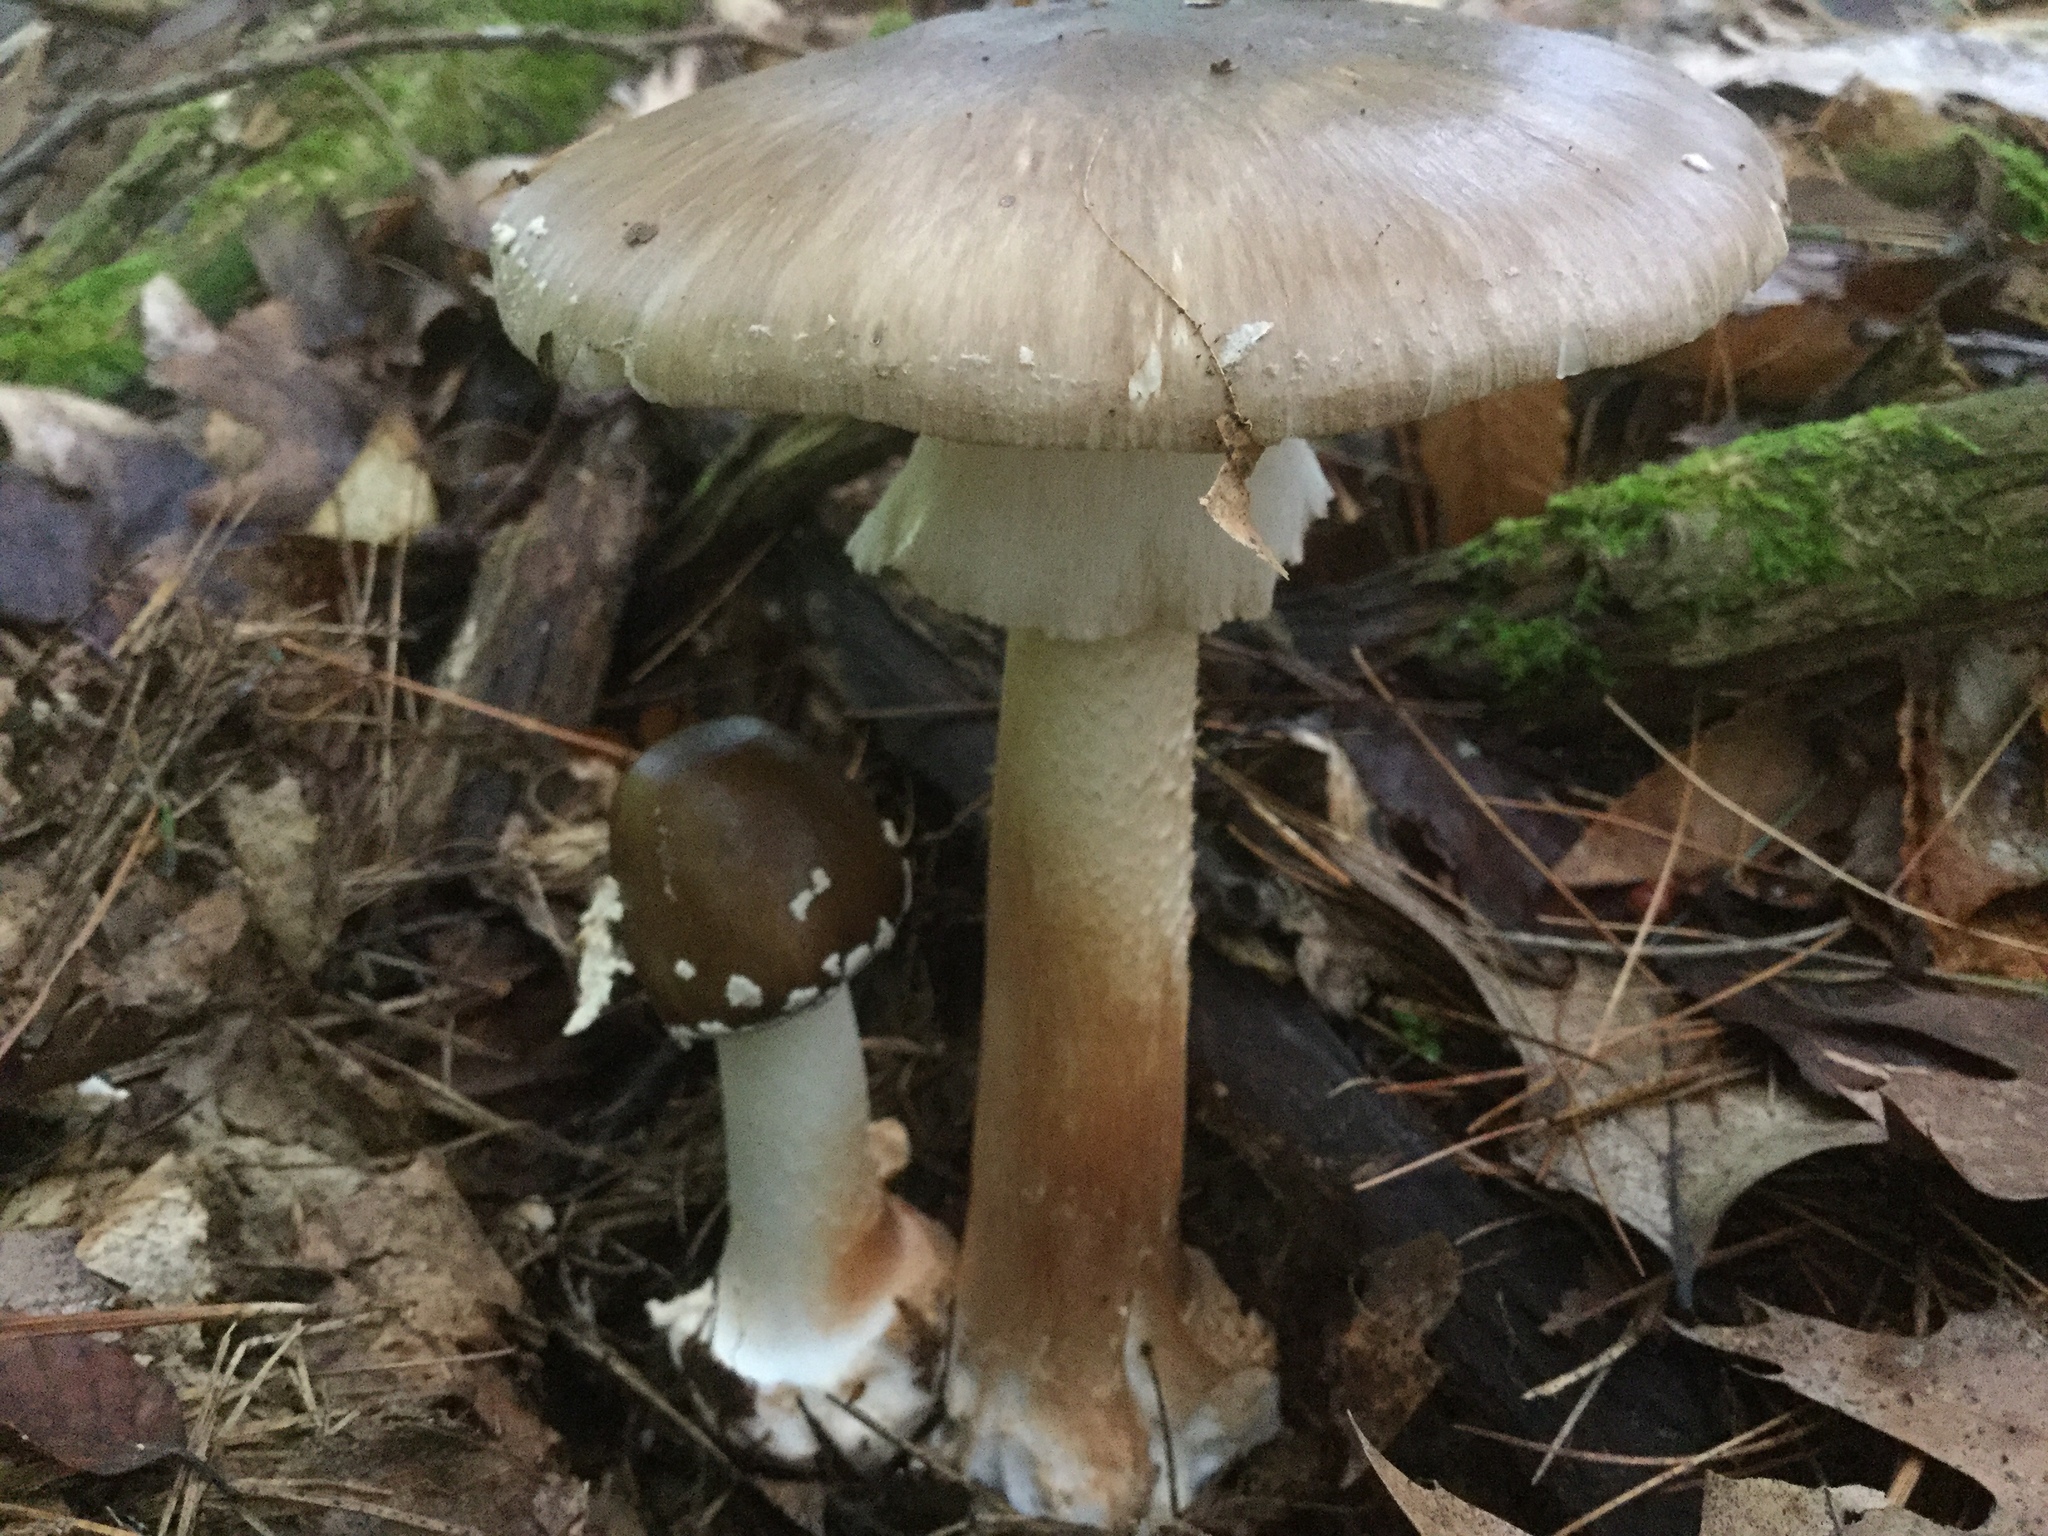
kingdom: Fungi
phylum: Basidiomycota
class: Agaricomycetes
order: Agaricales
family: Amanitaceae
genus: Amanita
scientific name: Amanita brunnescens
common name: Brown american star-footed amanita
